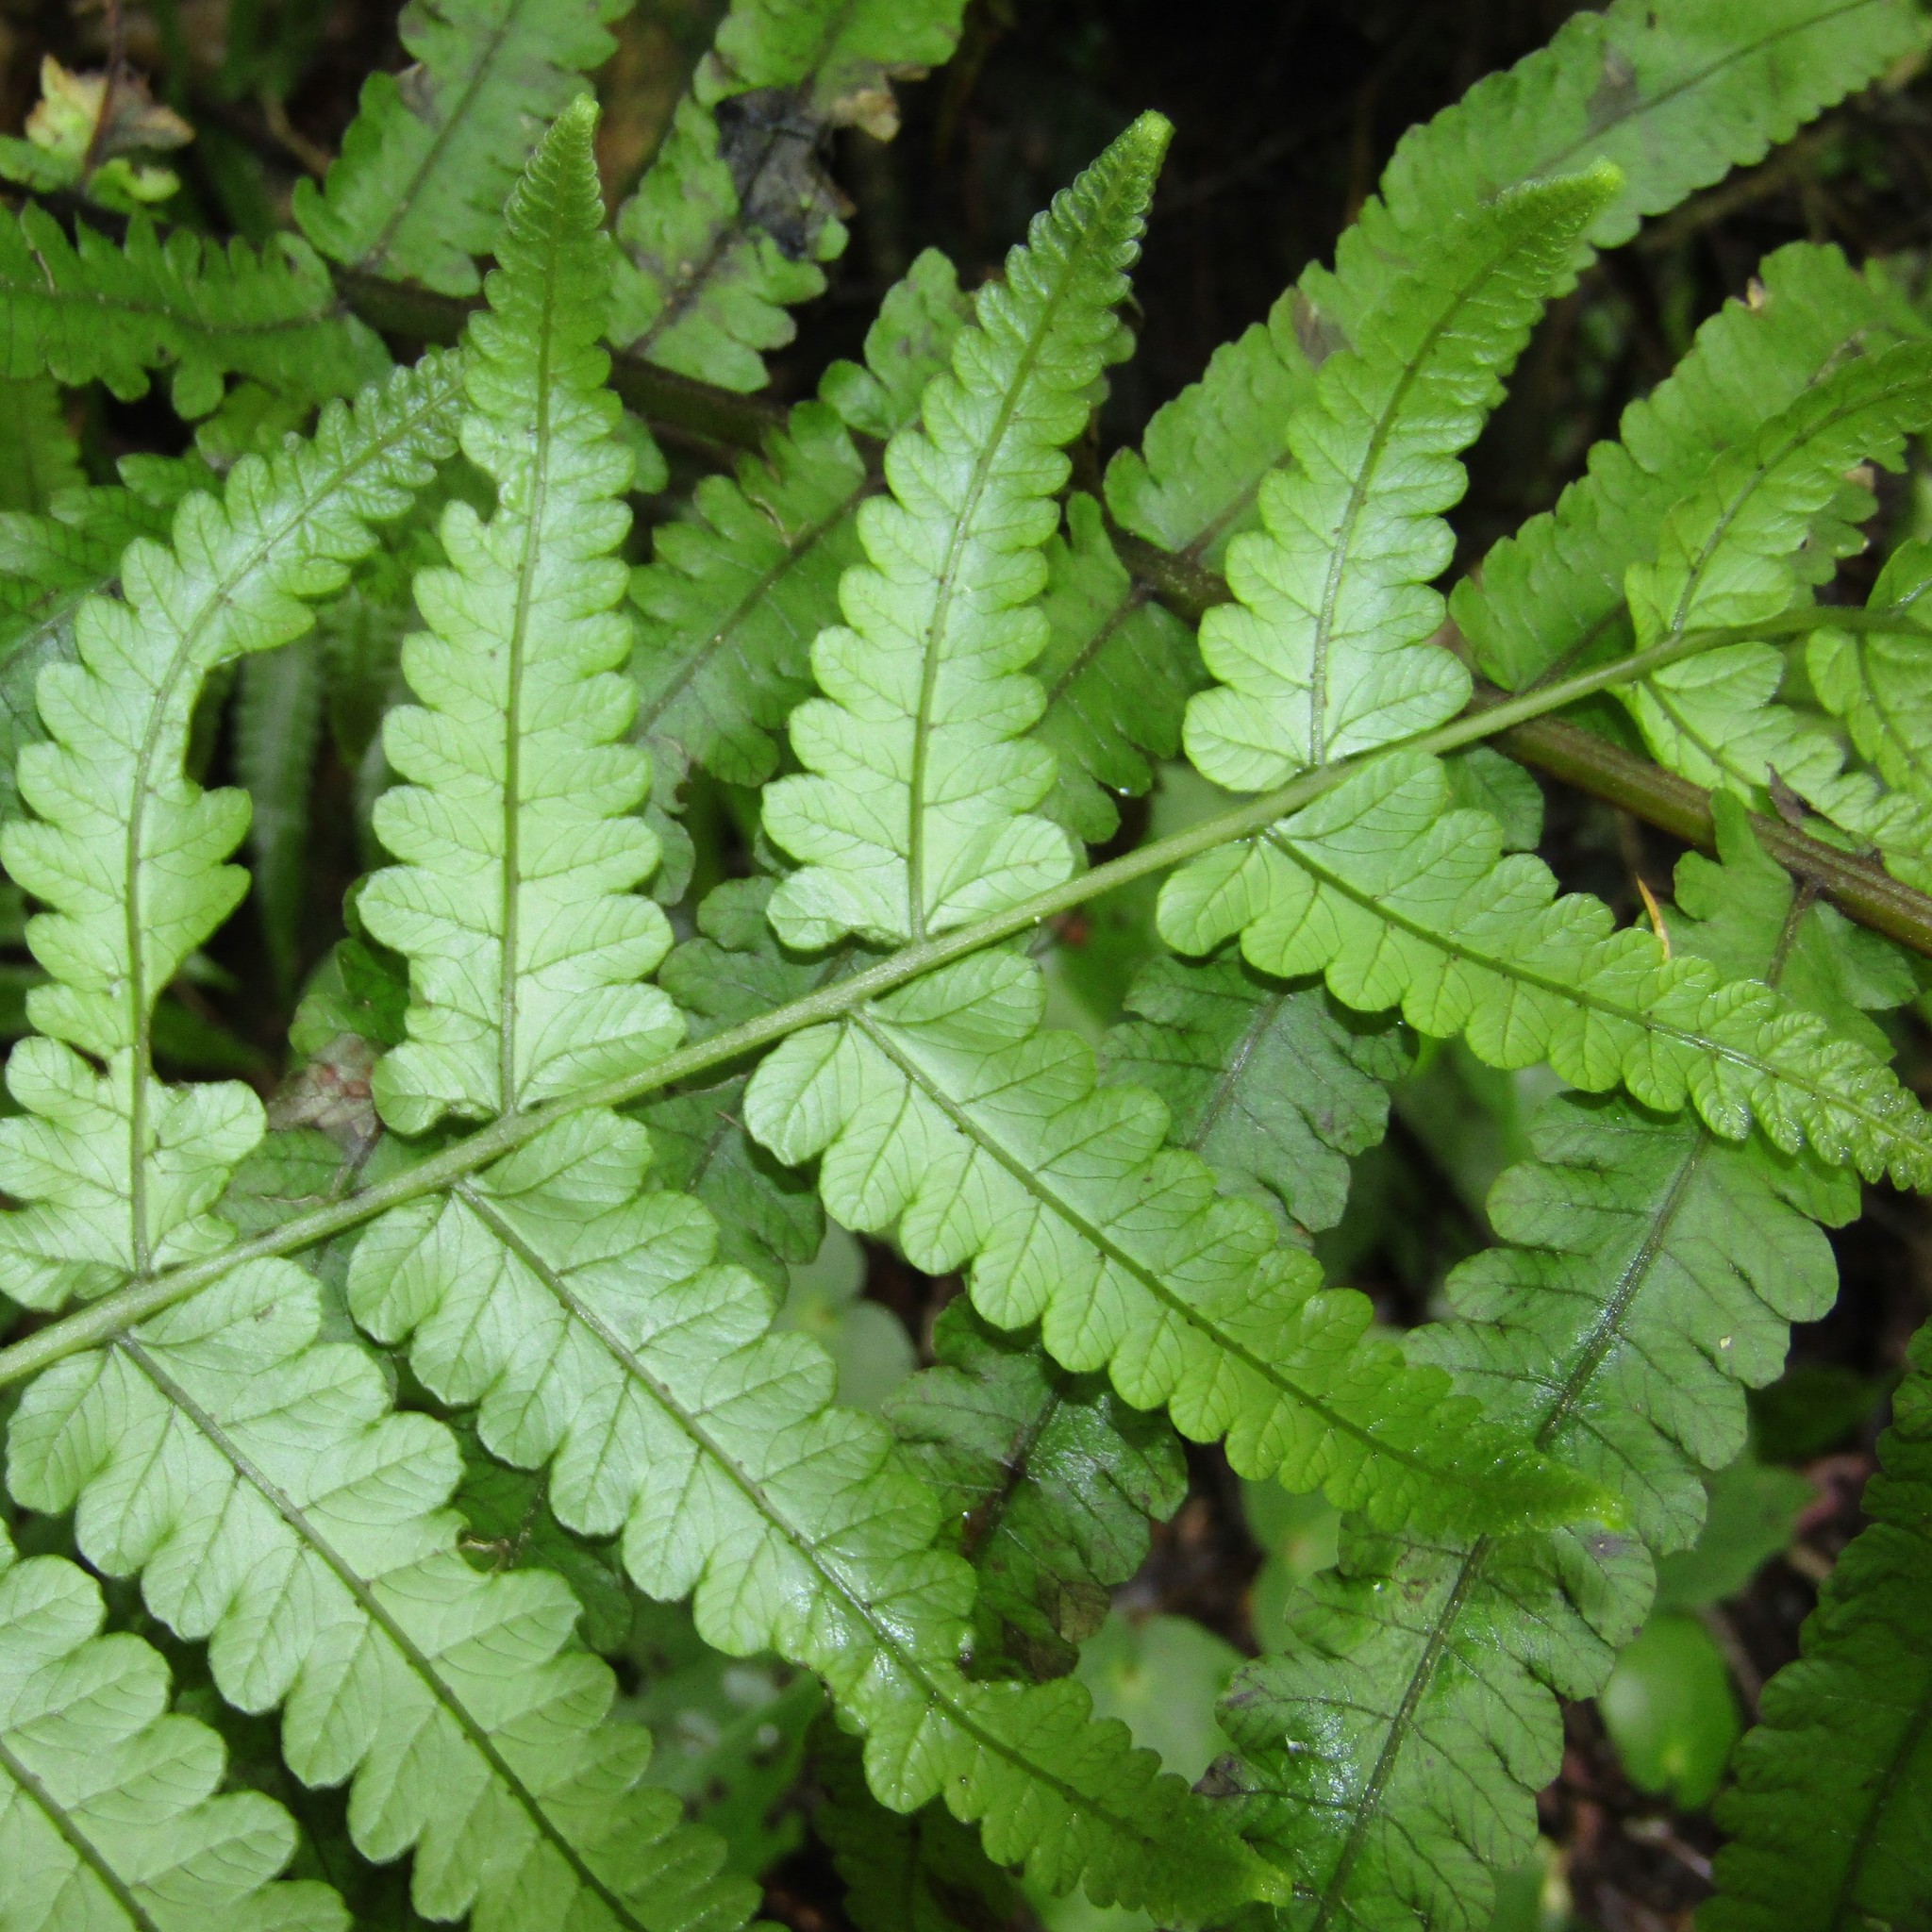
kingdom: Plantae
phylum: Tracheophyta
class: Polypodiopsida
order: Polypodiales
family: Thelypteridaceae
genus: Pakau
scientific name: Pakau pennigera
